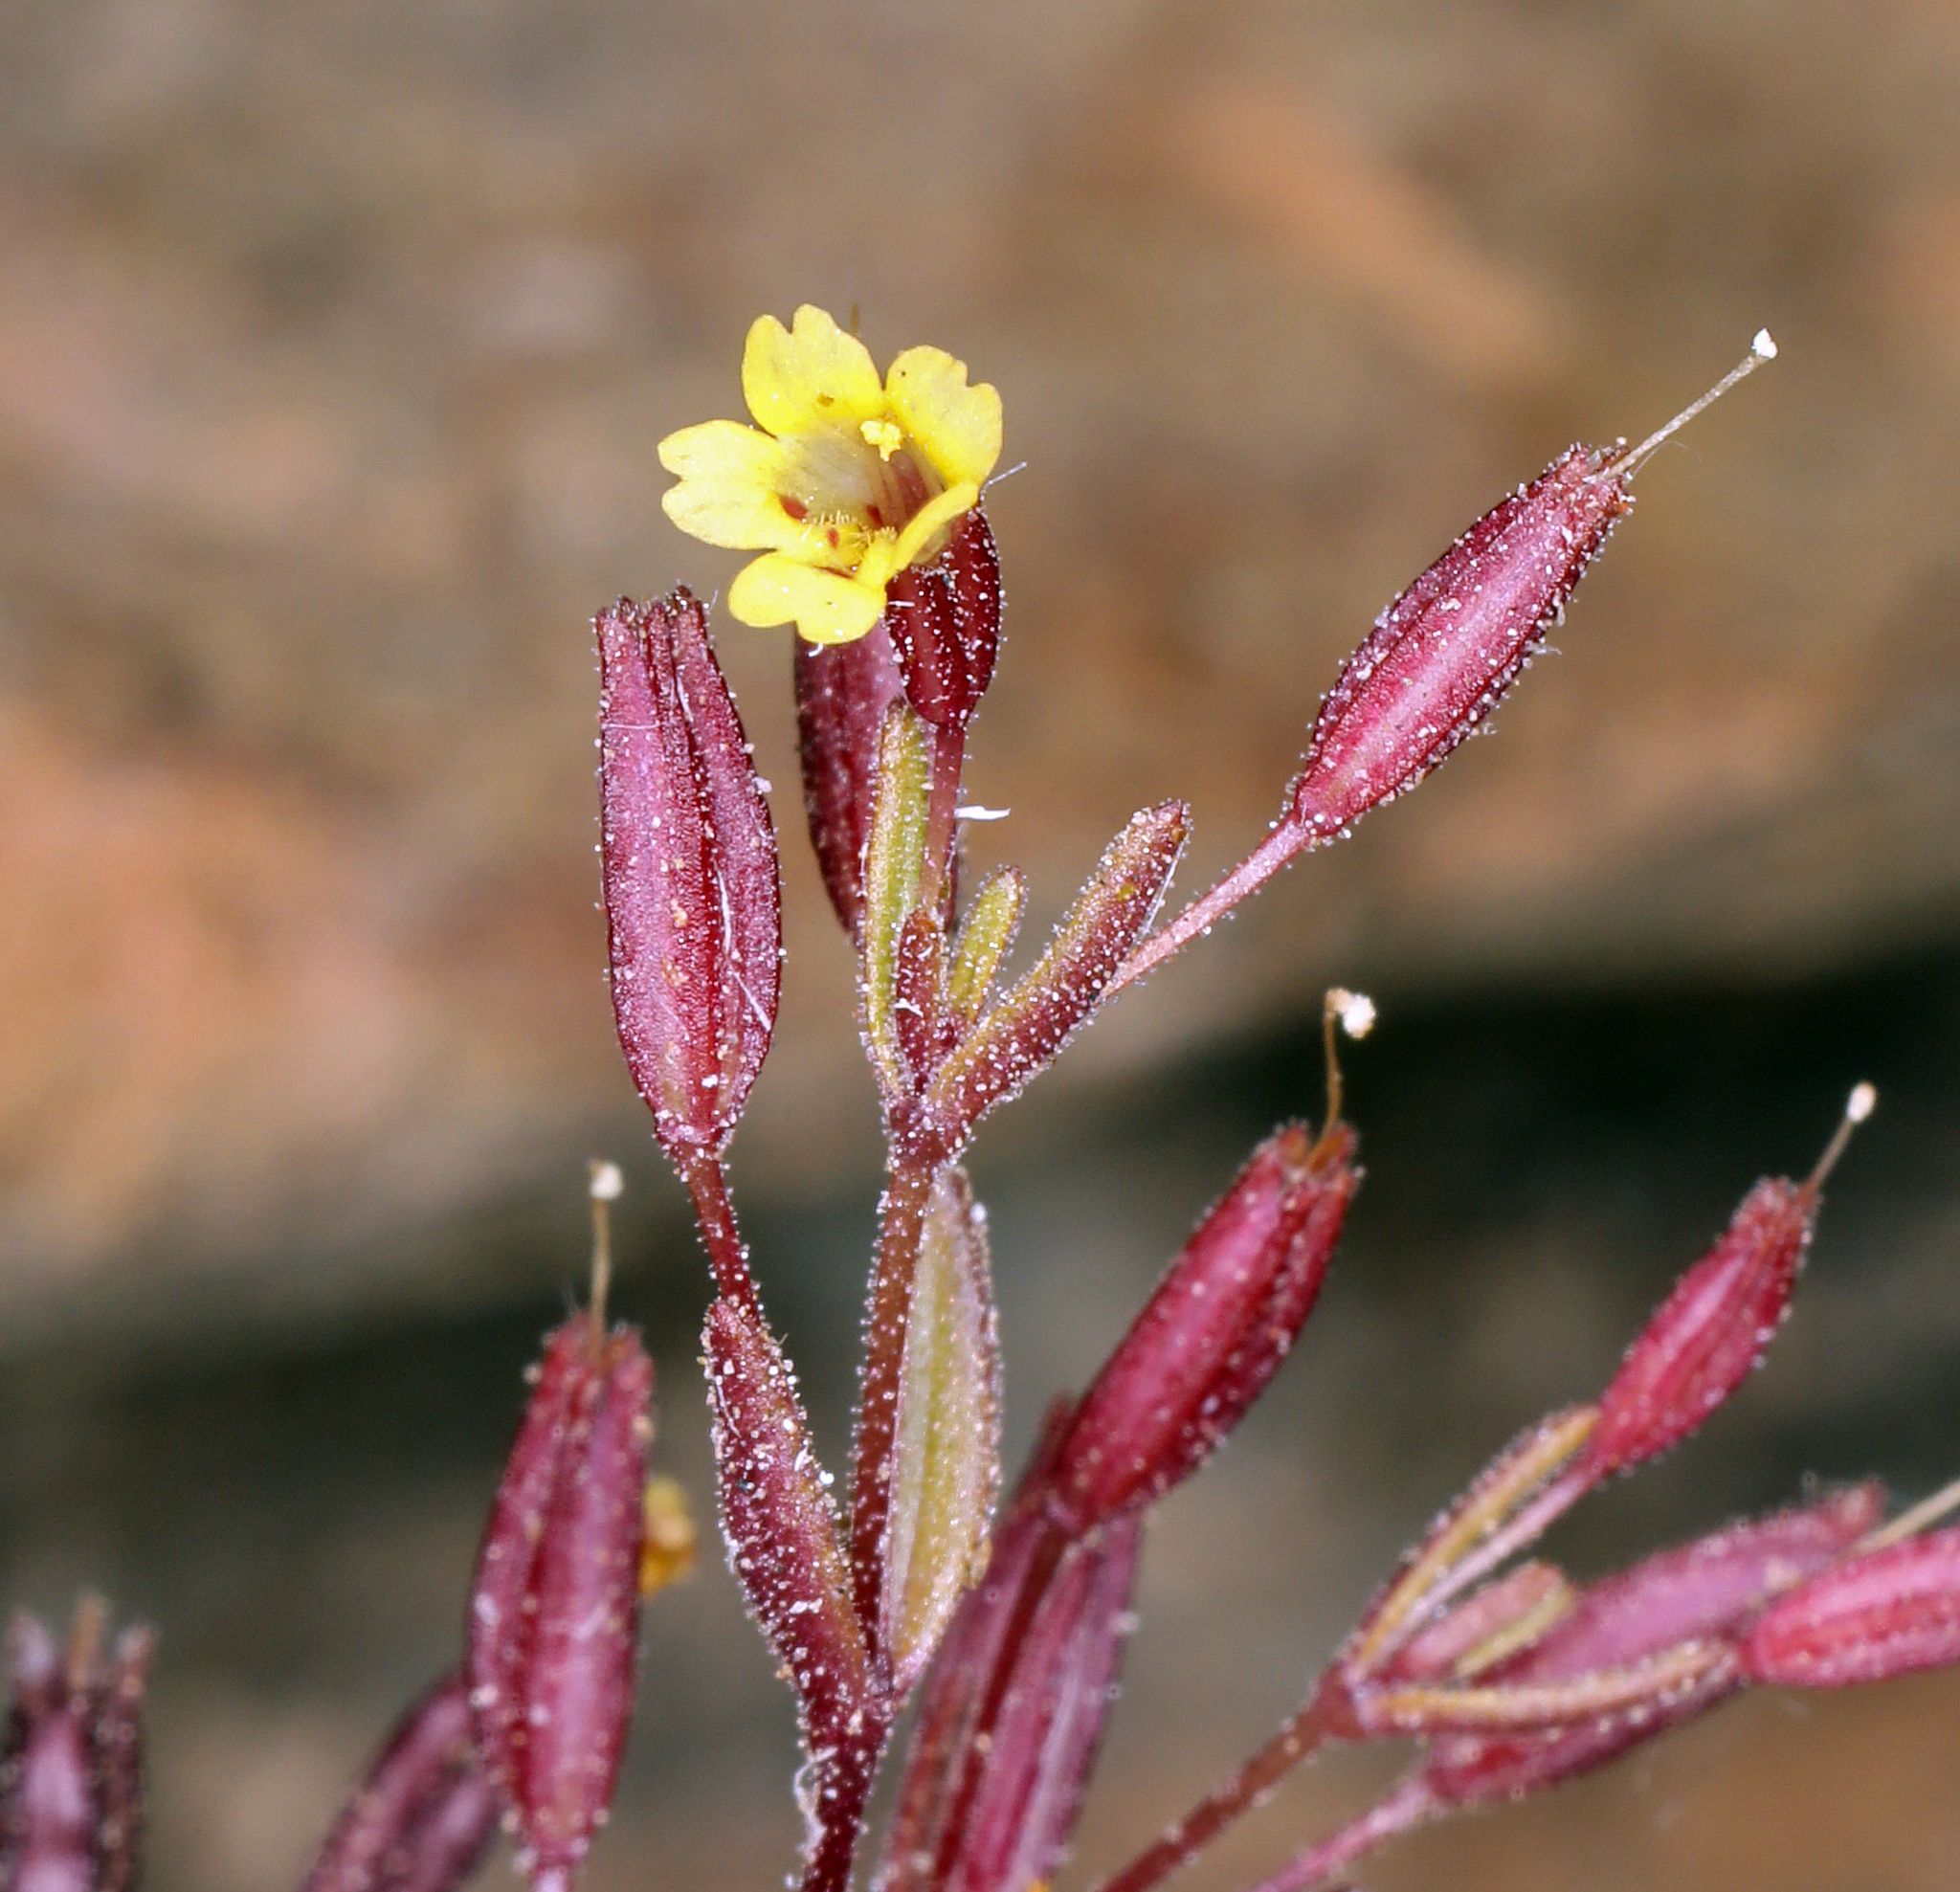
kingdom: Plantae
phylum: Tracheophyta
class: Magnoliopsida
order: Lamiales
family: Phrymaceae
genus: Erythranthe
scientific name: Erythranthe rubella
